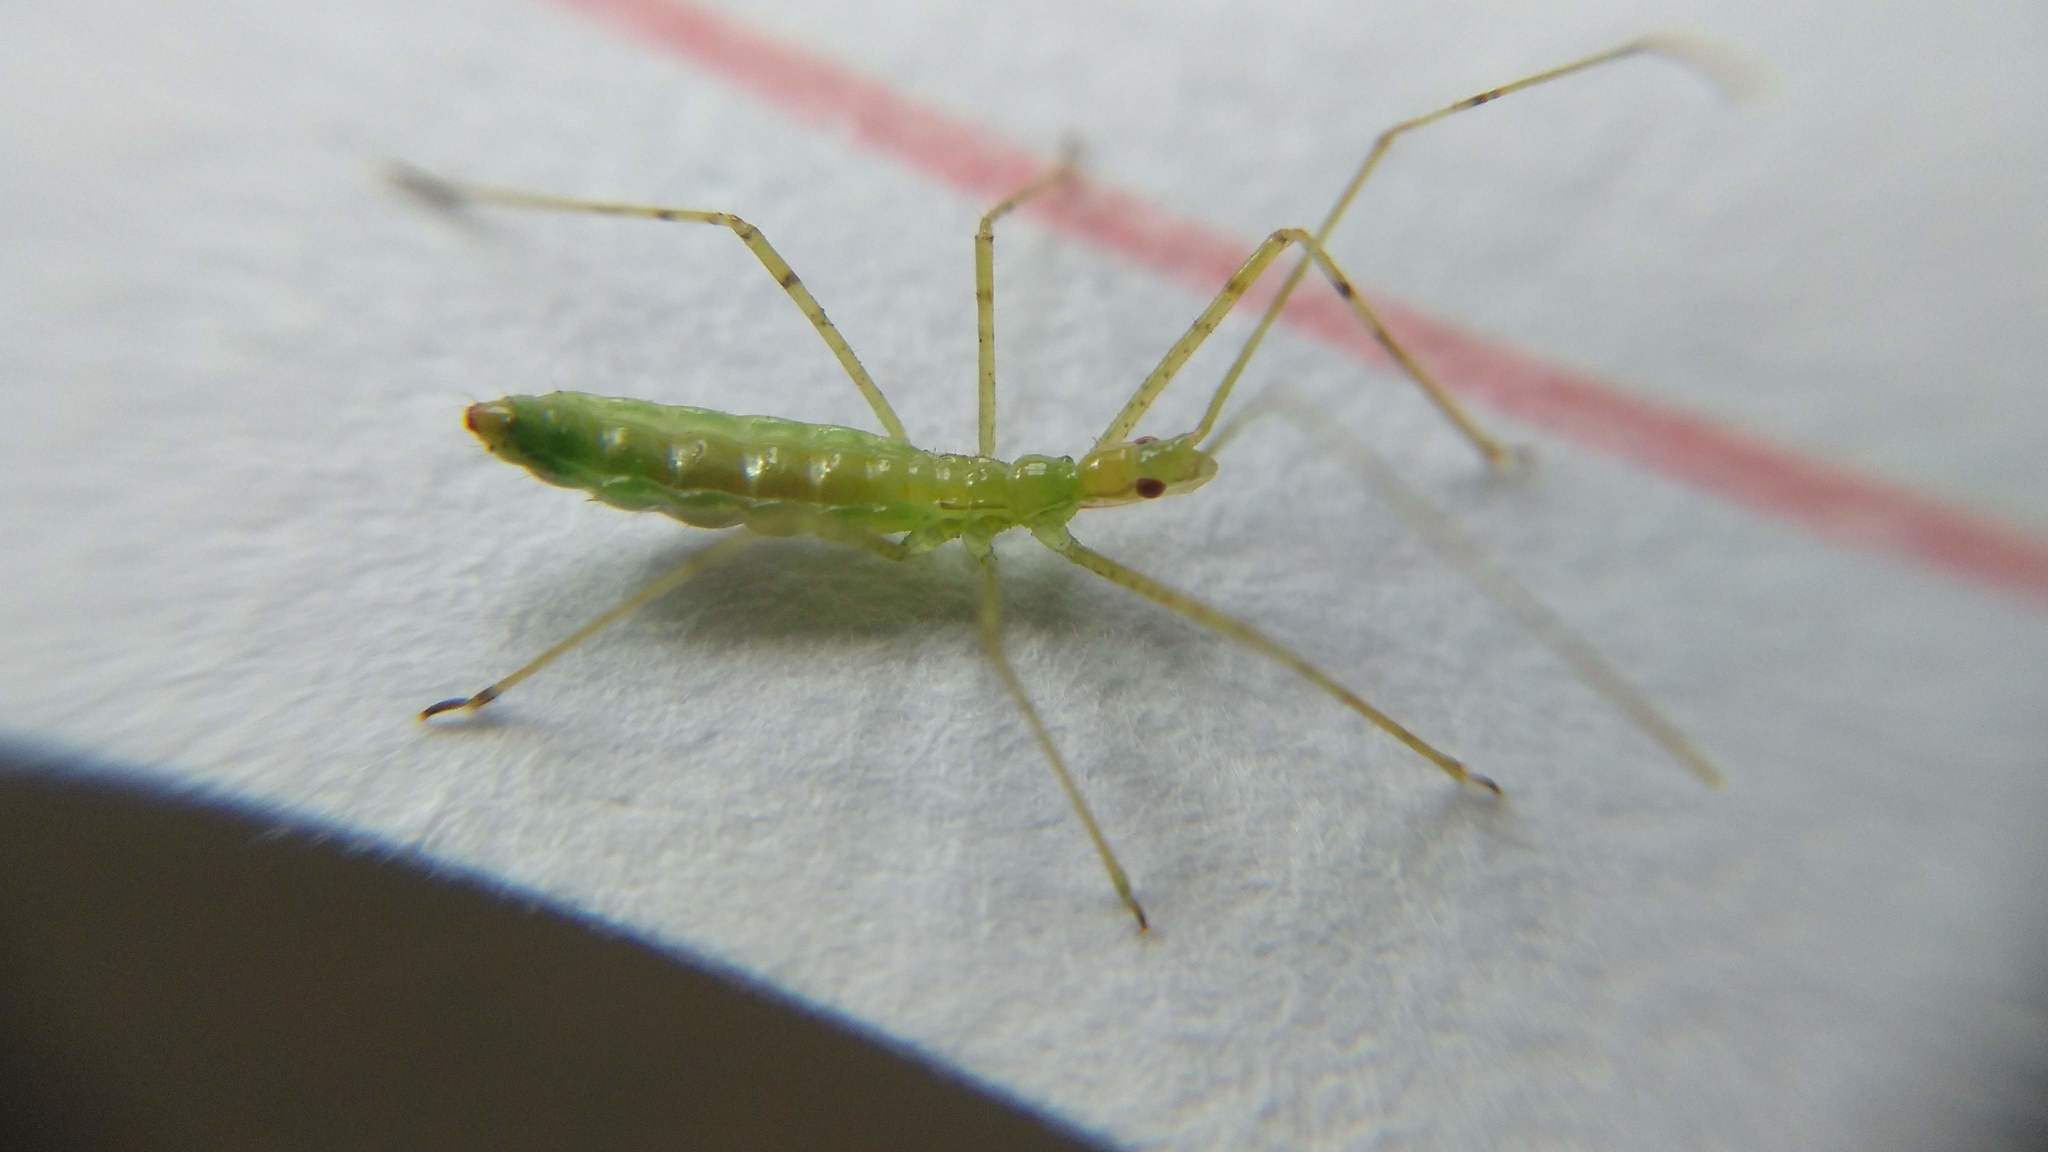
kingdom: Animalia
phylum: Arthropoda
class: Insecta
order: Hemiptera
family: Reduviidae
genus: Zelus
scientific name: Zelus luridus
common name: Pale green assassin bug
